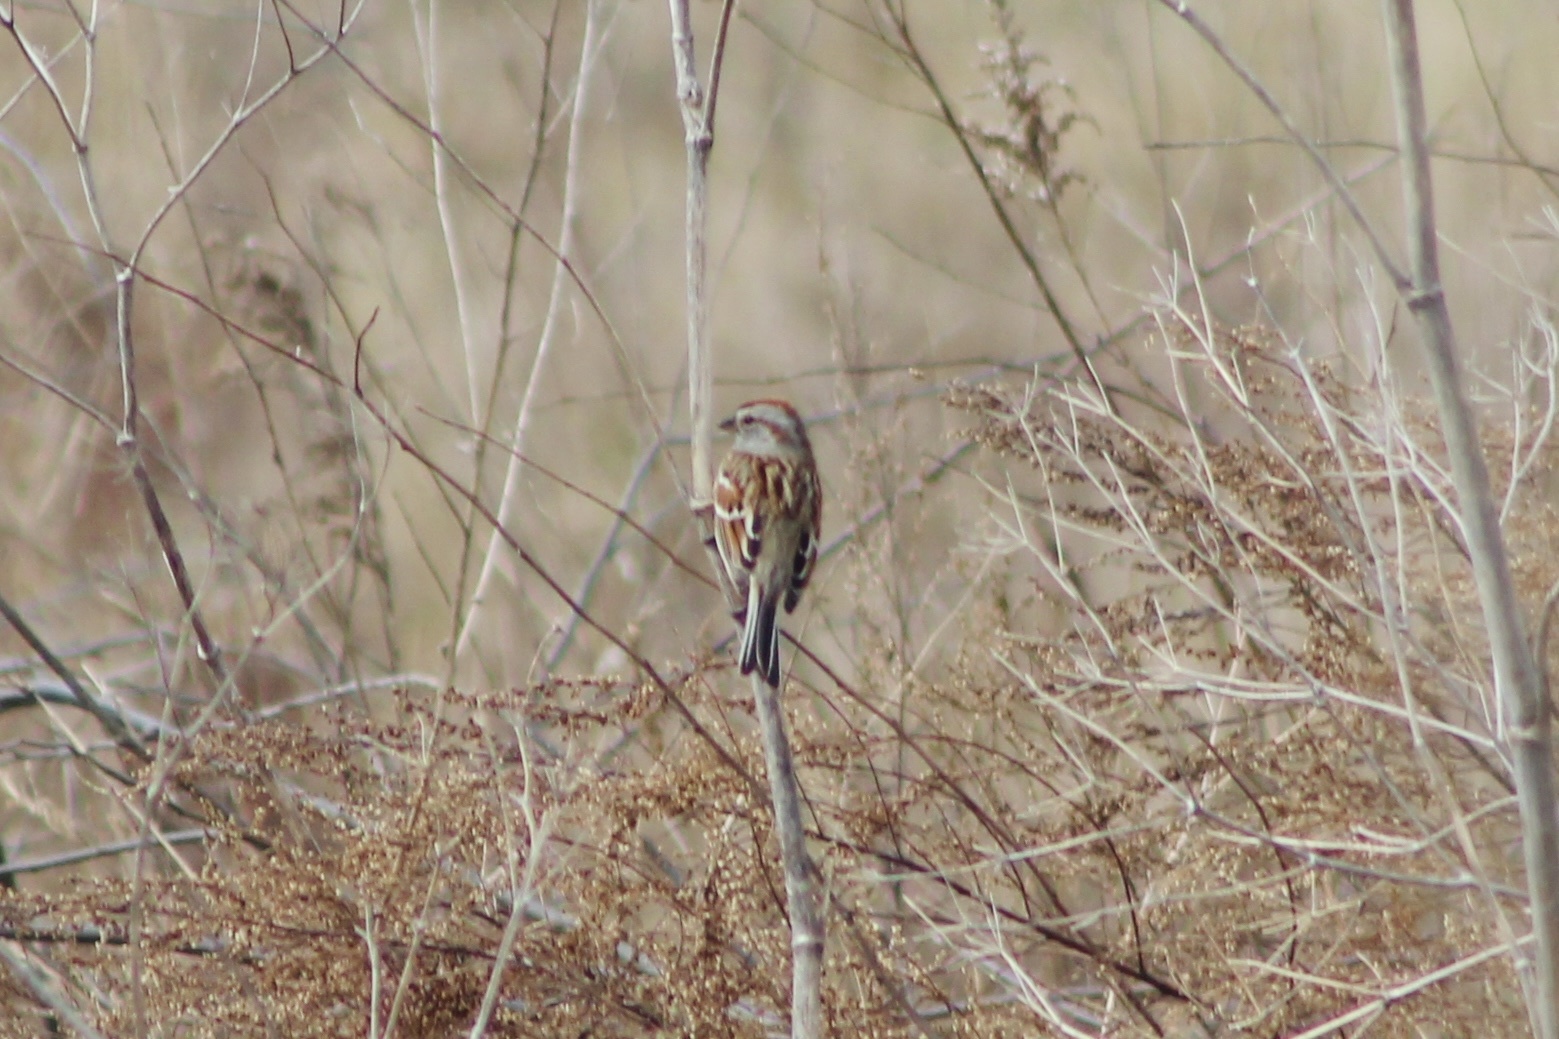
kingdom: Animalia
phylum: Chordata
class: Aves
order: Passeriformes
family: Passerellidae
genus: Spizelloides
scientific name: Spizelloides arborea
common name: American tree sparrow
